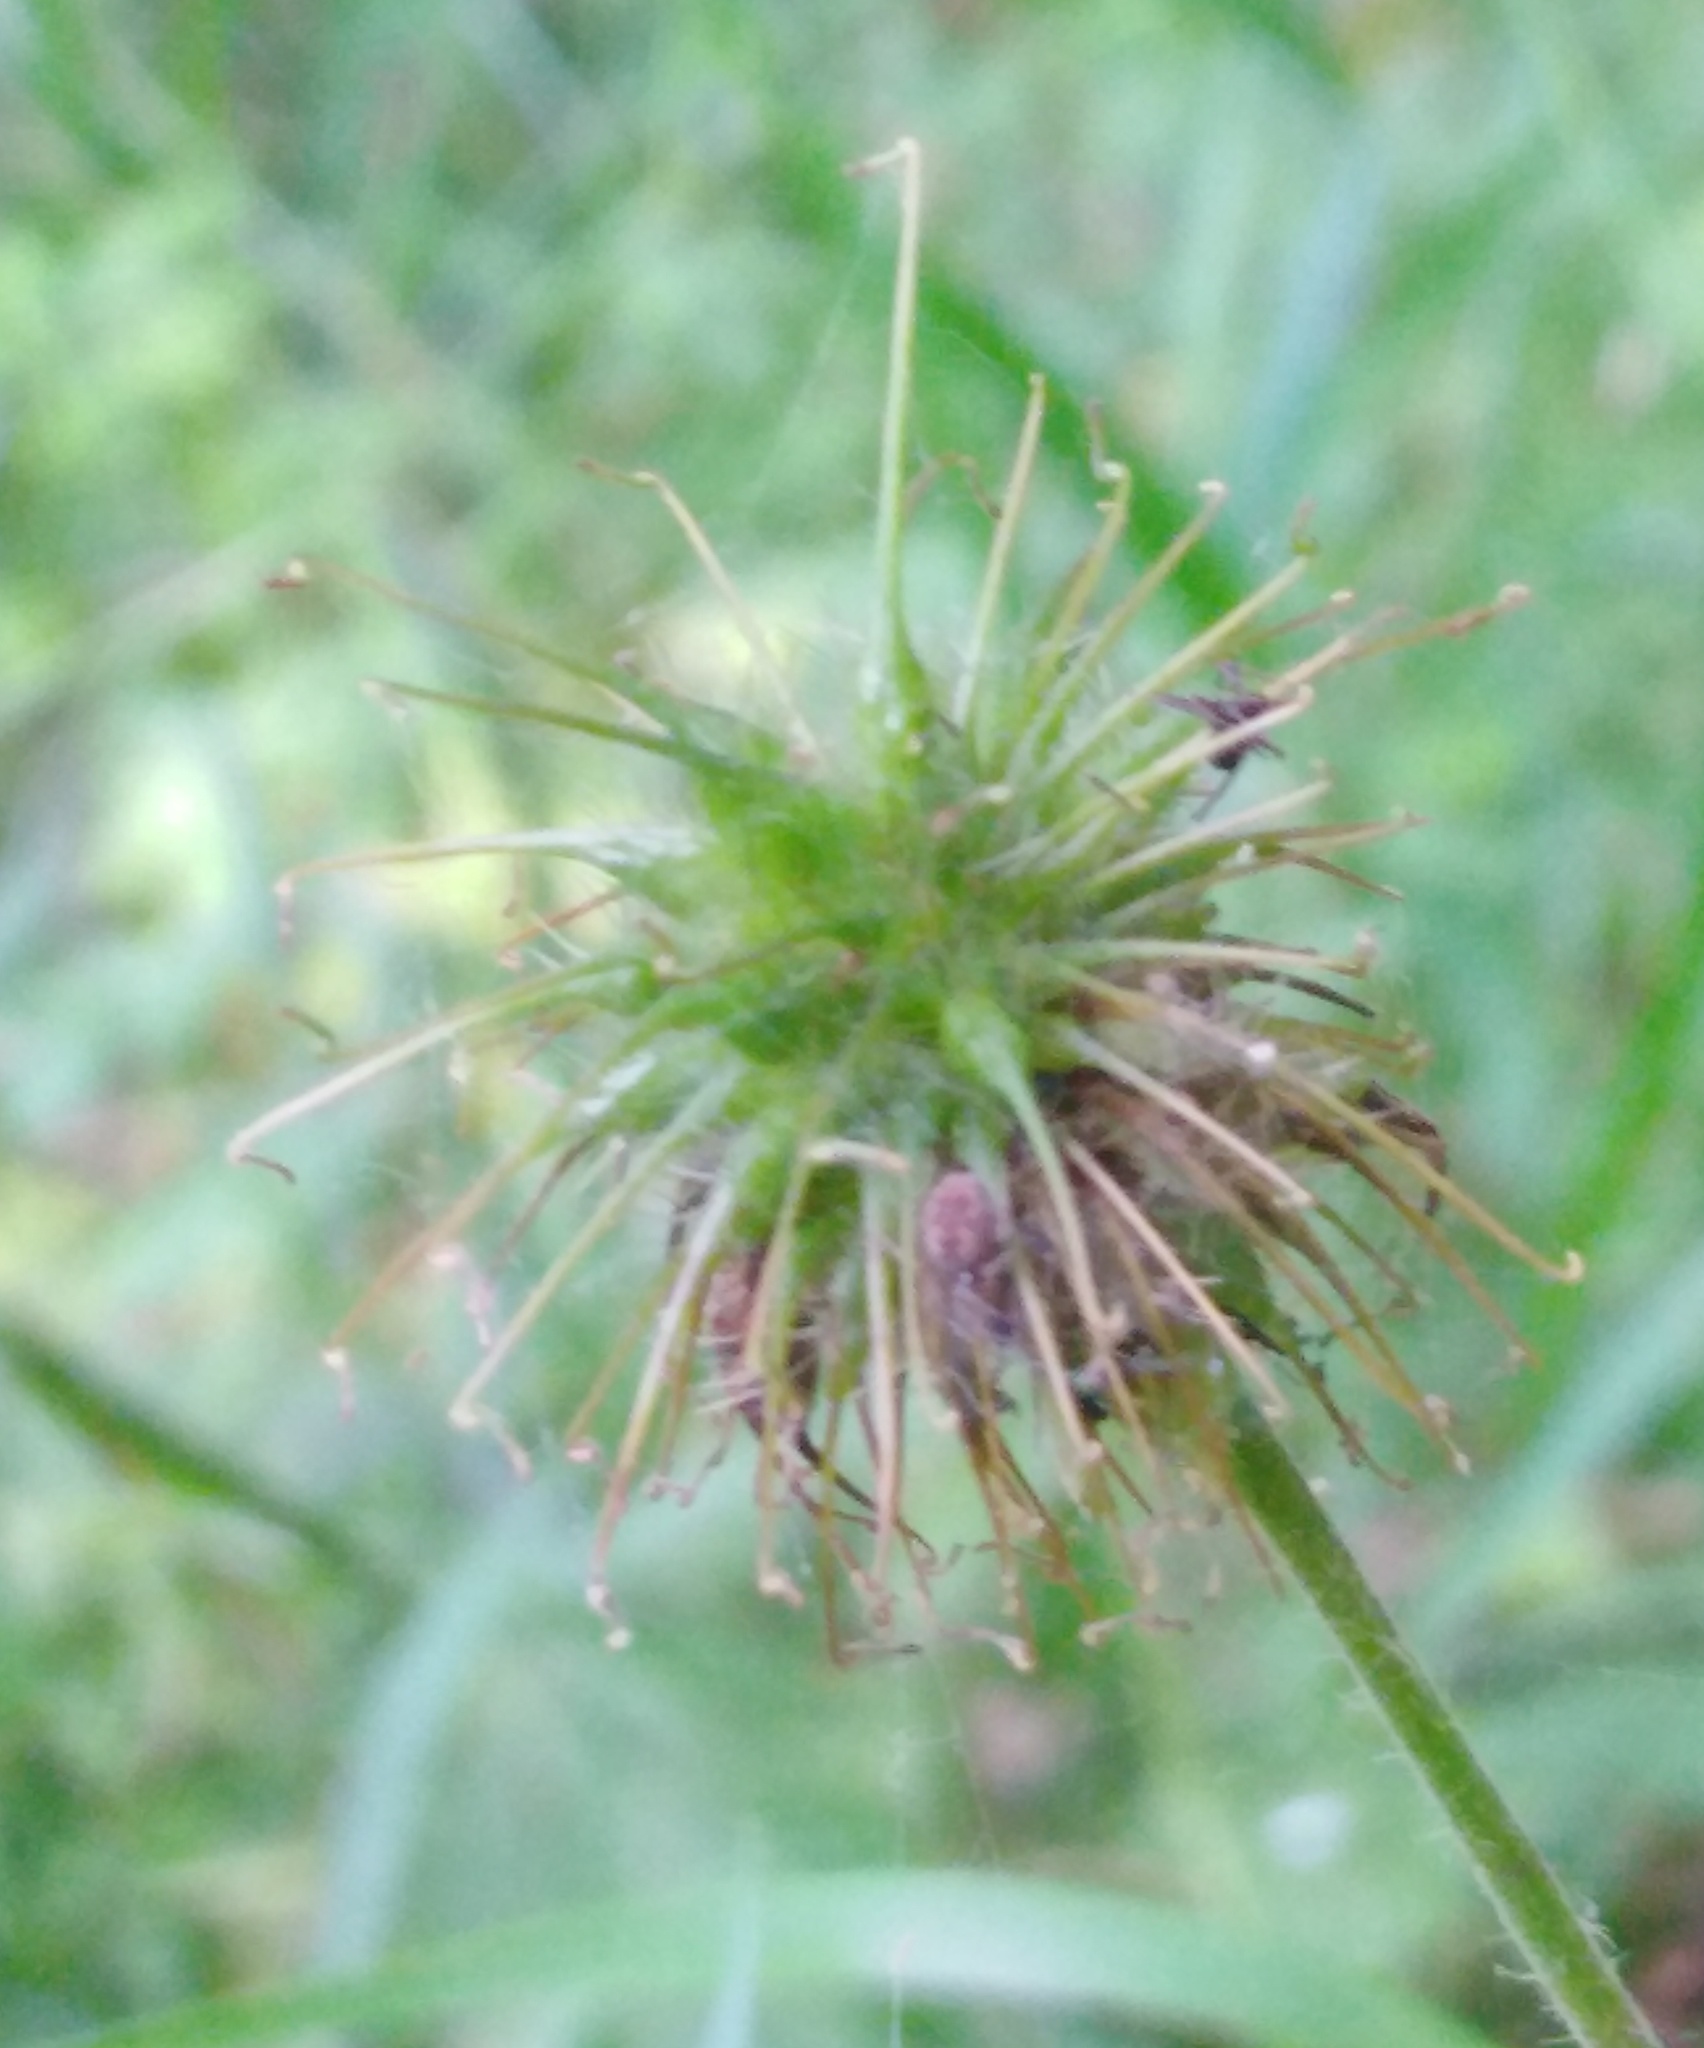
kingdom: Plantae
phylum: Tracheophyta
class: Magnoliopsida
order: Rosales
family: Rosaceae
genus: Geum
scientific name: Geum urbanum
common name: Wood avens
